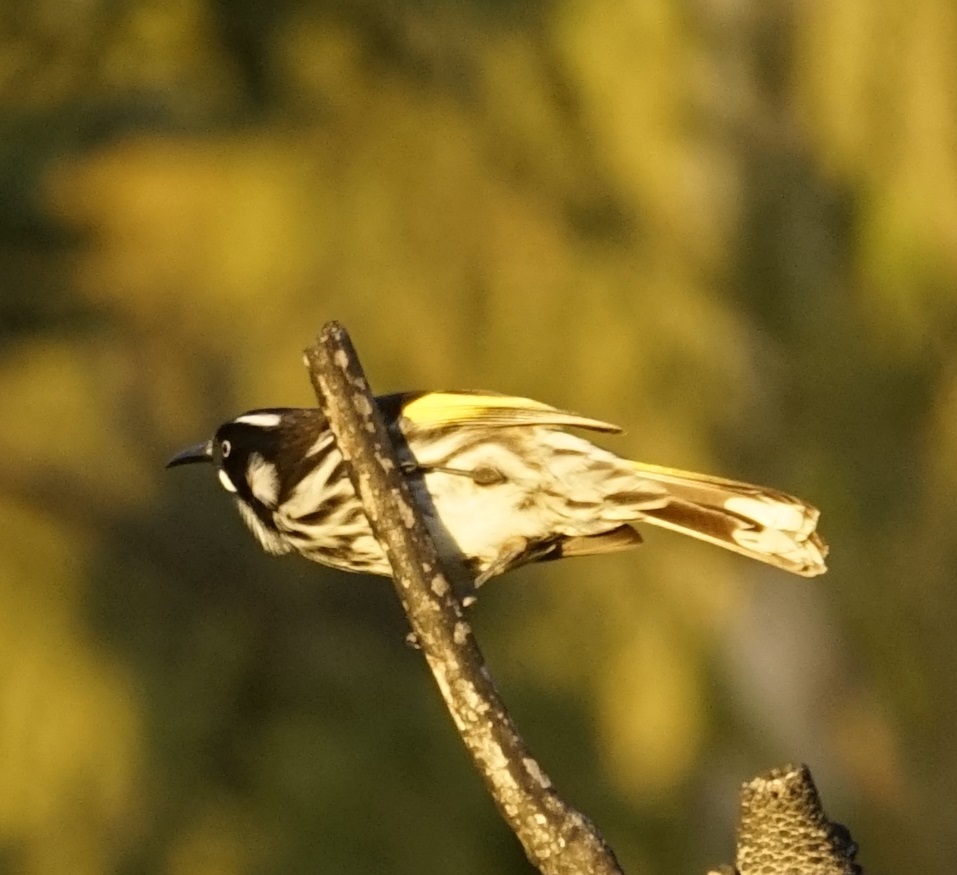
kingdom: Animalia
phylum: Chordata
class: Aves
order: Passeriformes
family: Meliphagidae
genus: Phylidonyris
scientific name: Phylidonyris novaehollandiae
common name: New holland honeyeater
